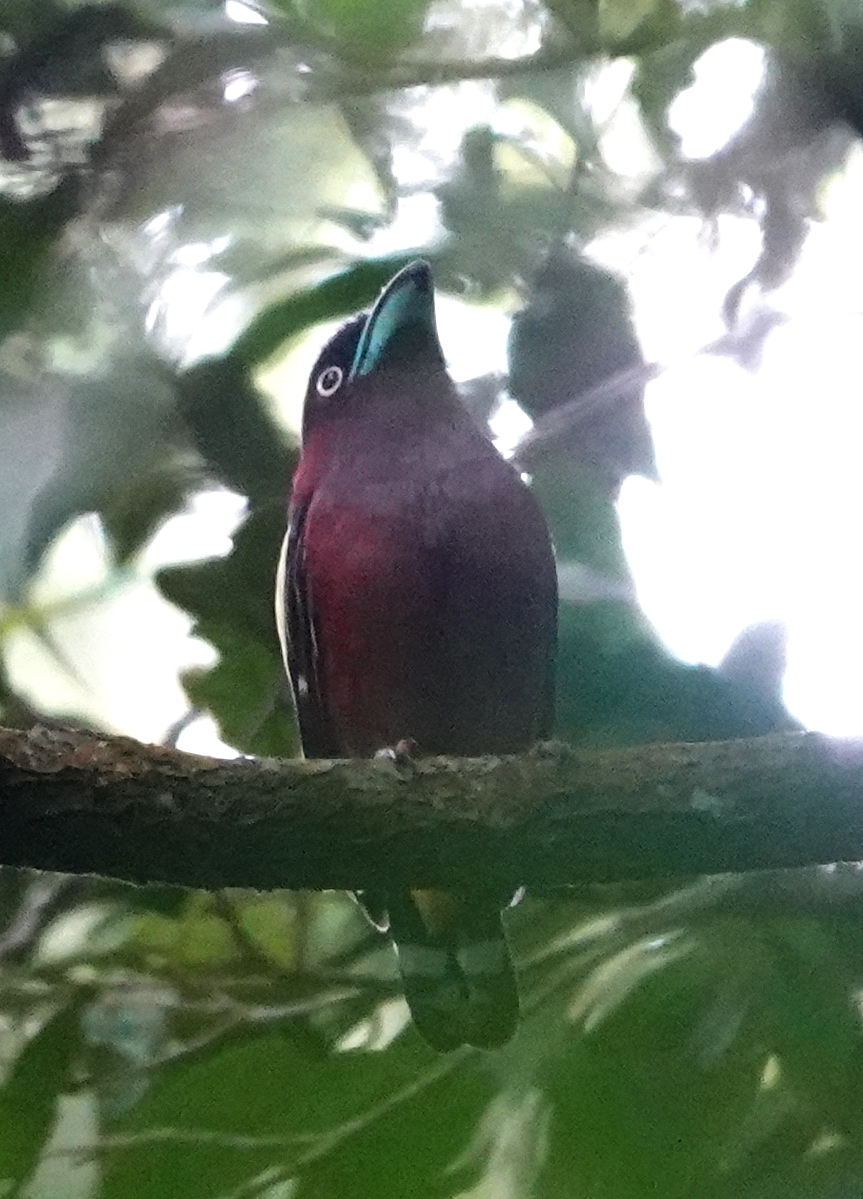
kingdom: Animalia
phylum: Chordata
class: Aves
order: Passeriformes
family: Eurylaimidae
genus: Eurylaimus
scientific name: Eurylaimus javanicus
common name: Banded broadbill
